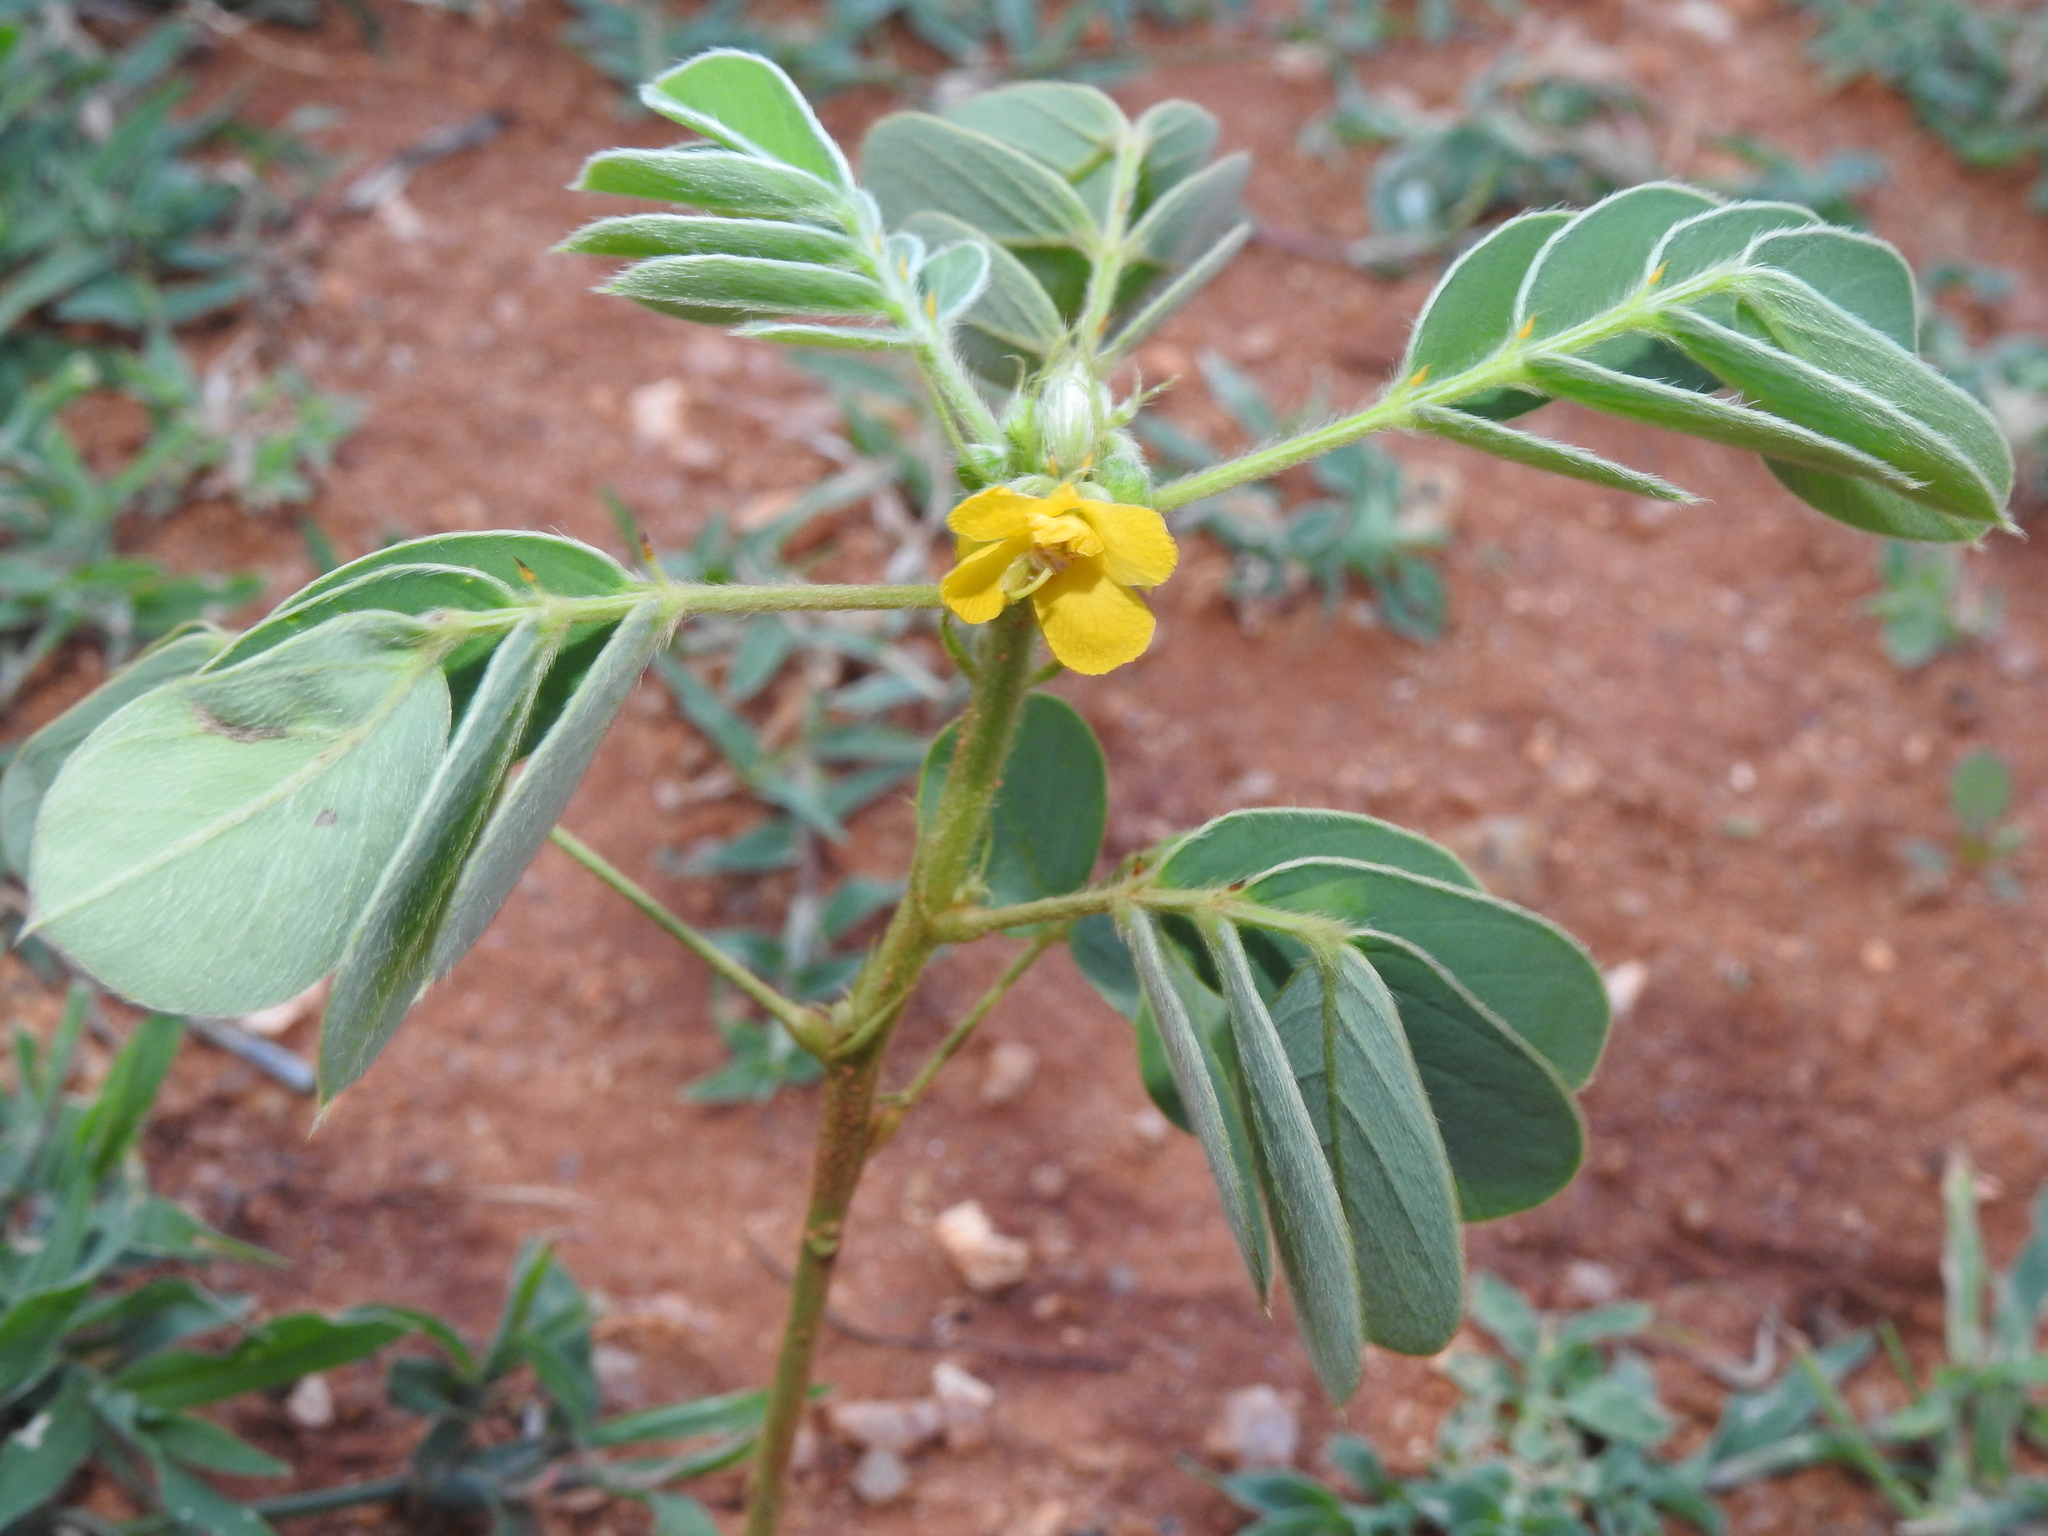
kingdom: Plantae
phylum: Tracheophyta
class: Magnoliopsida
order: Fabales
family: Fabaceae
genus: Senna
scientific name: Senna uniflora
